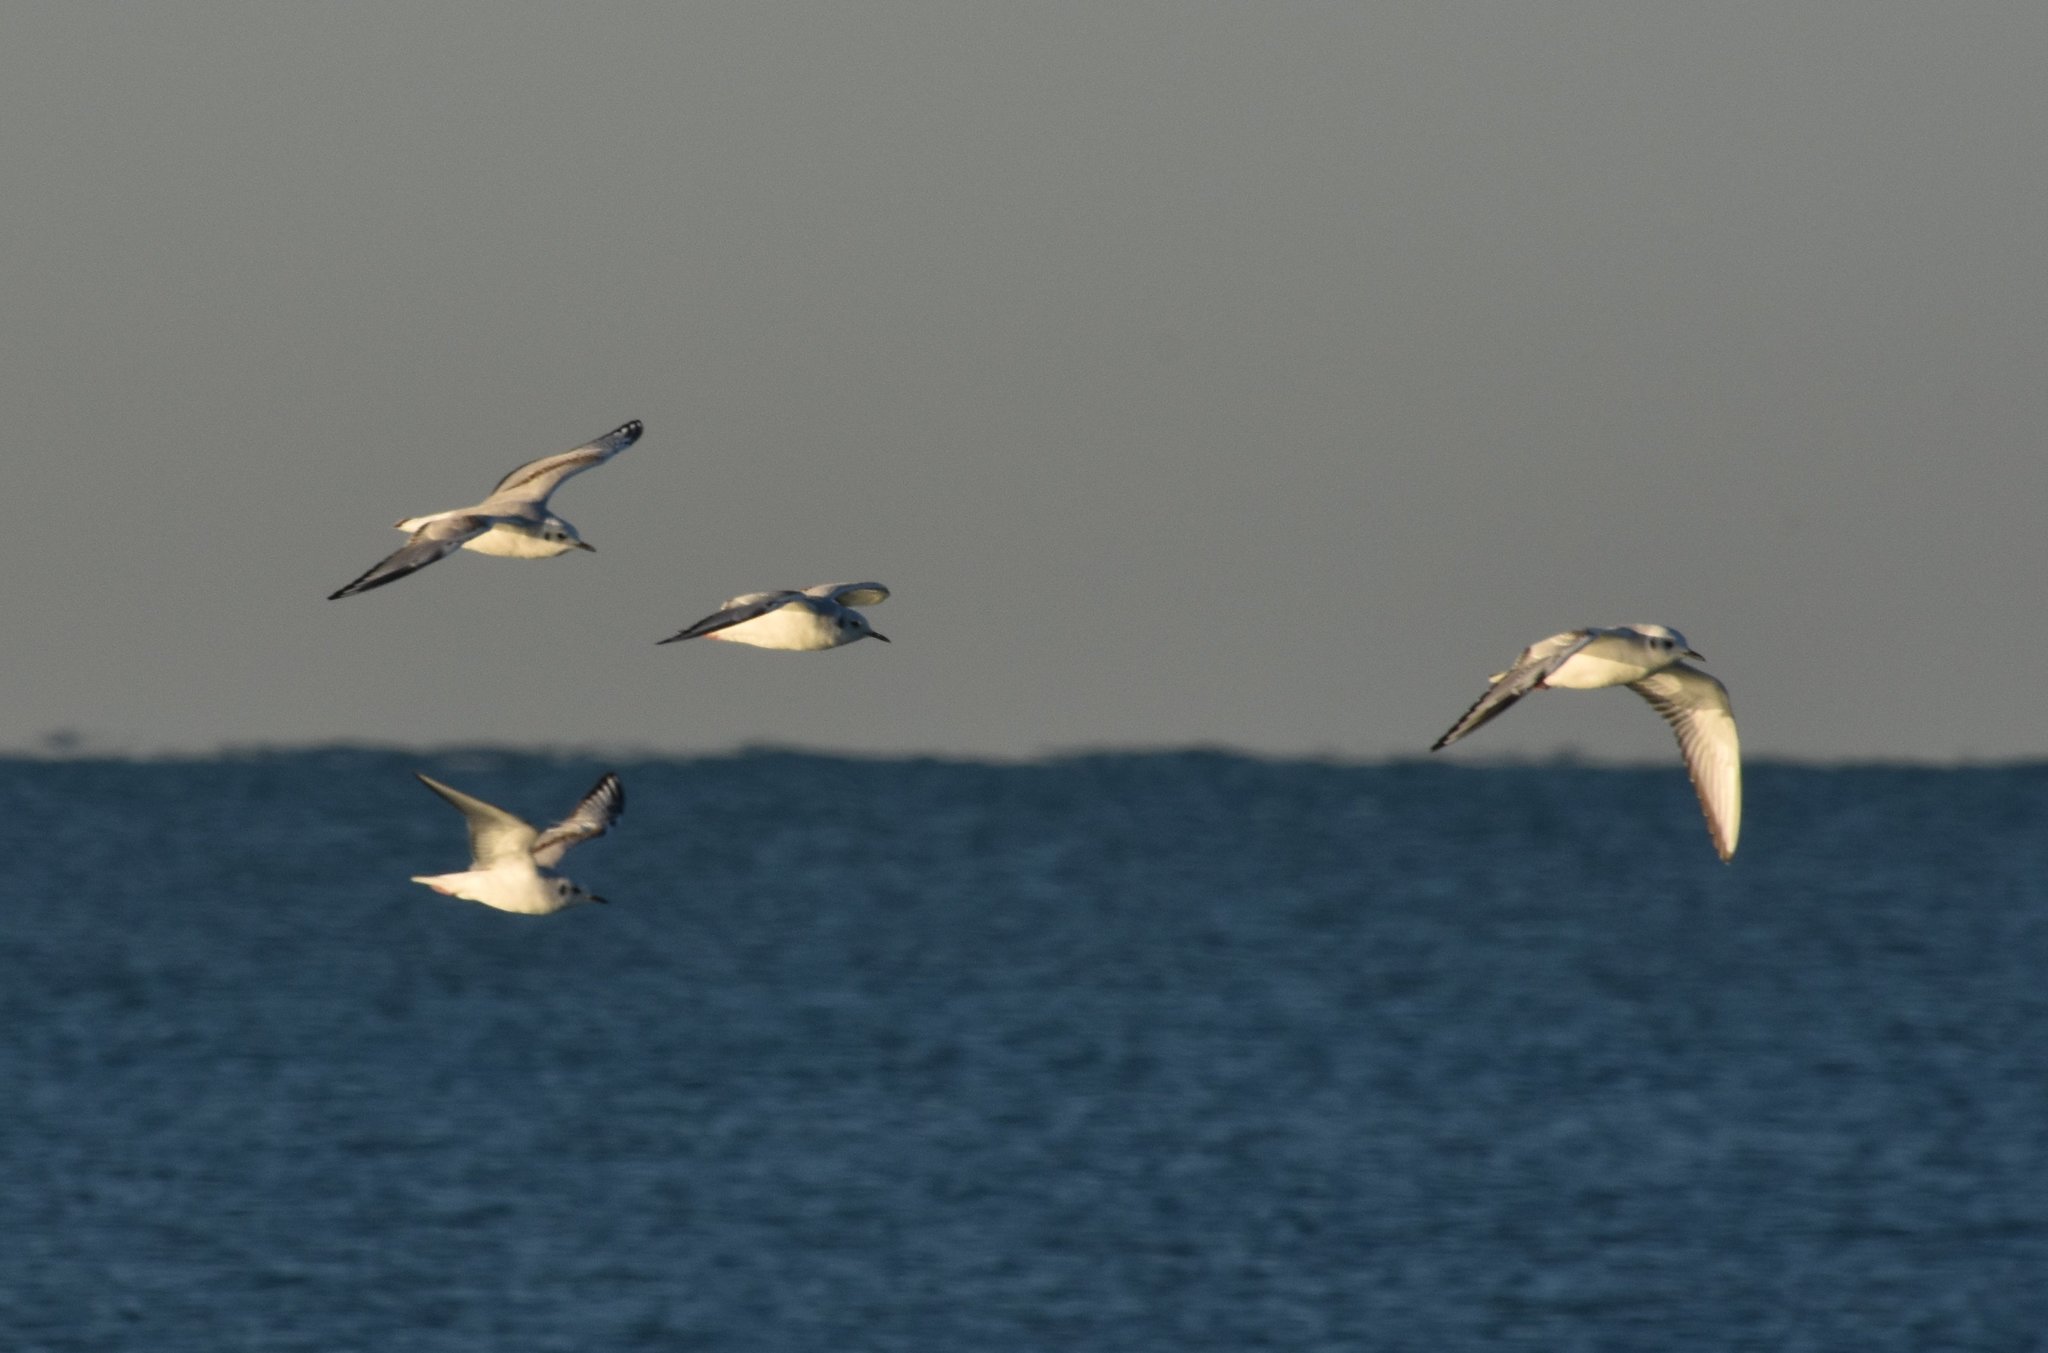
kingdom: Animalia
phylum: Chordata
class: Aves
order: Charadriiformes
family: Laridae
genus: Chroicocephalus
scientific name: Chroicocephalus philadelphia
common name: Bonaparte's gull
